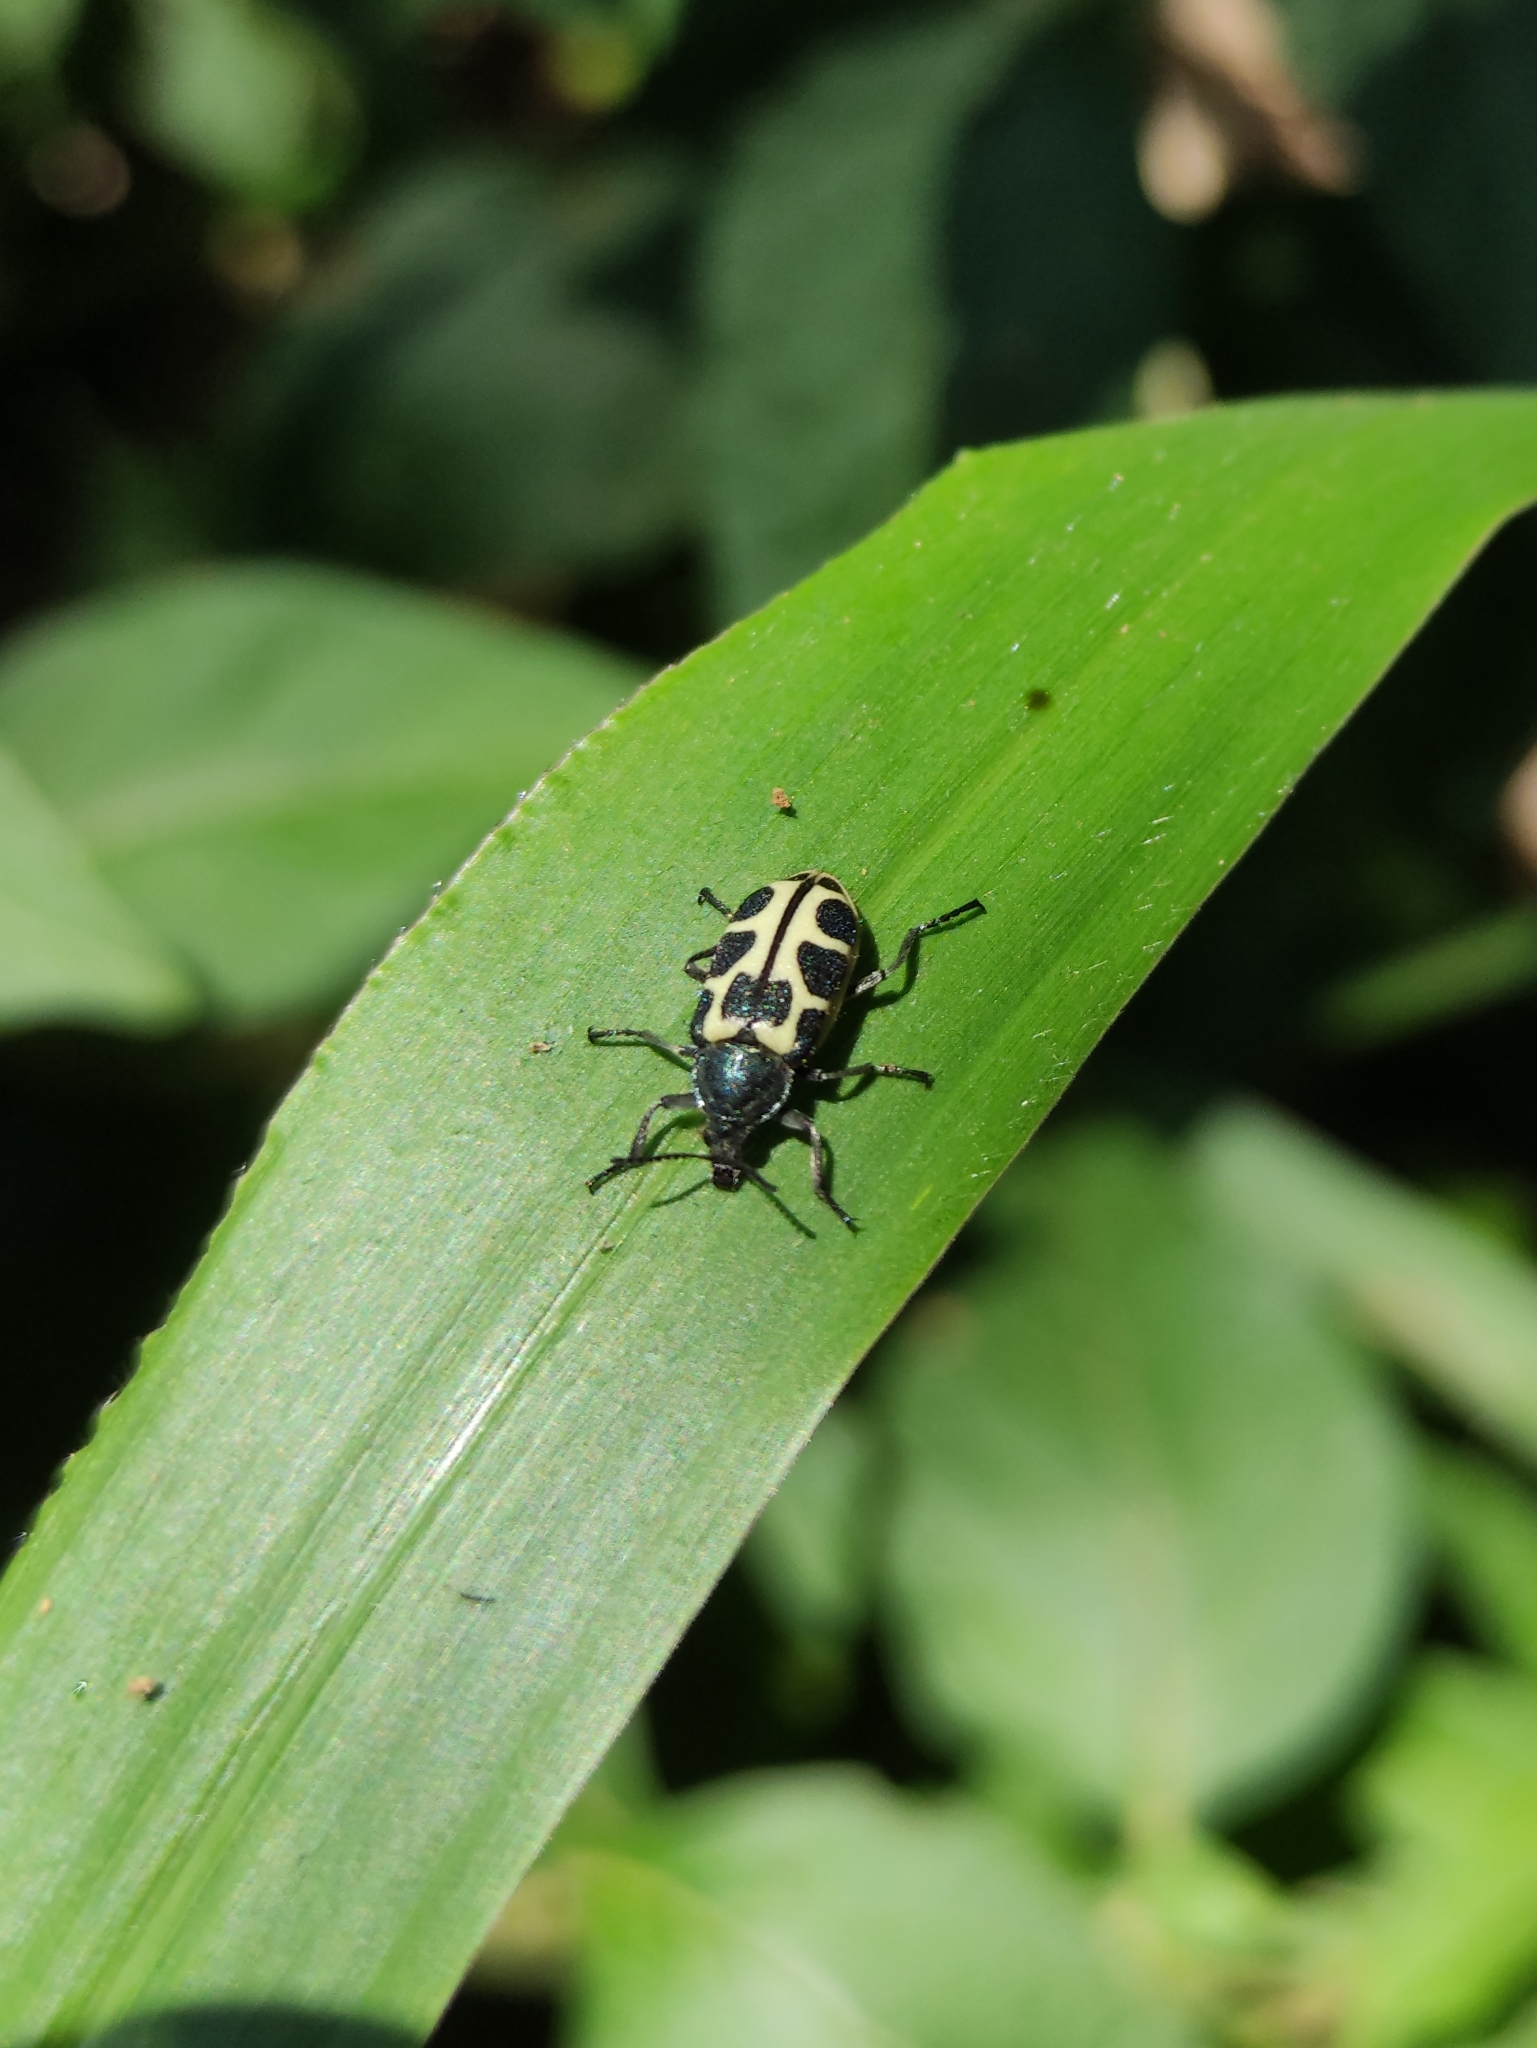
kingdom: Animalia
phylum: Arthropoda
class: Insecta
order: Coleoptera
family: Melyridae
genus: Astylus
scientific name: Astylus
